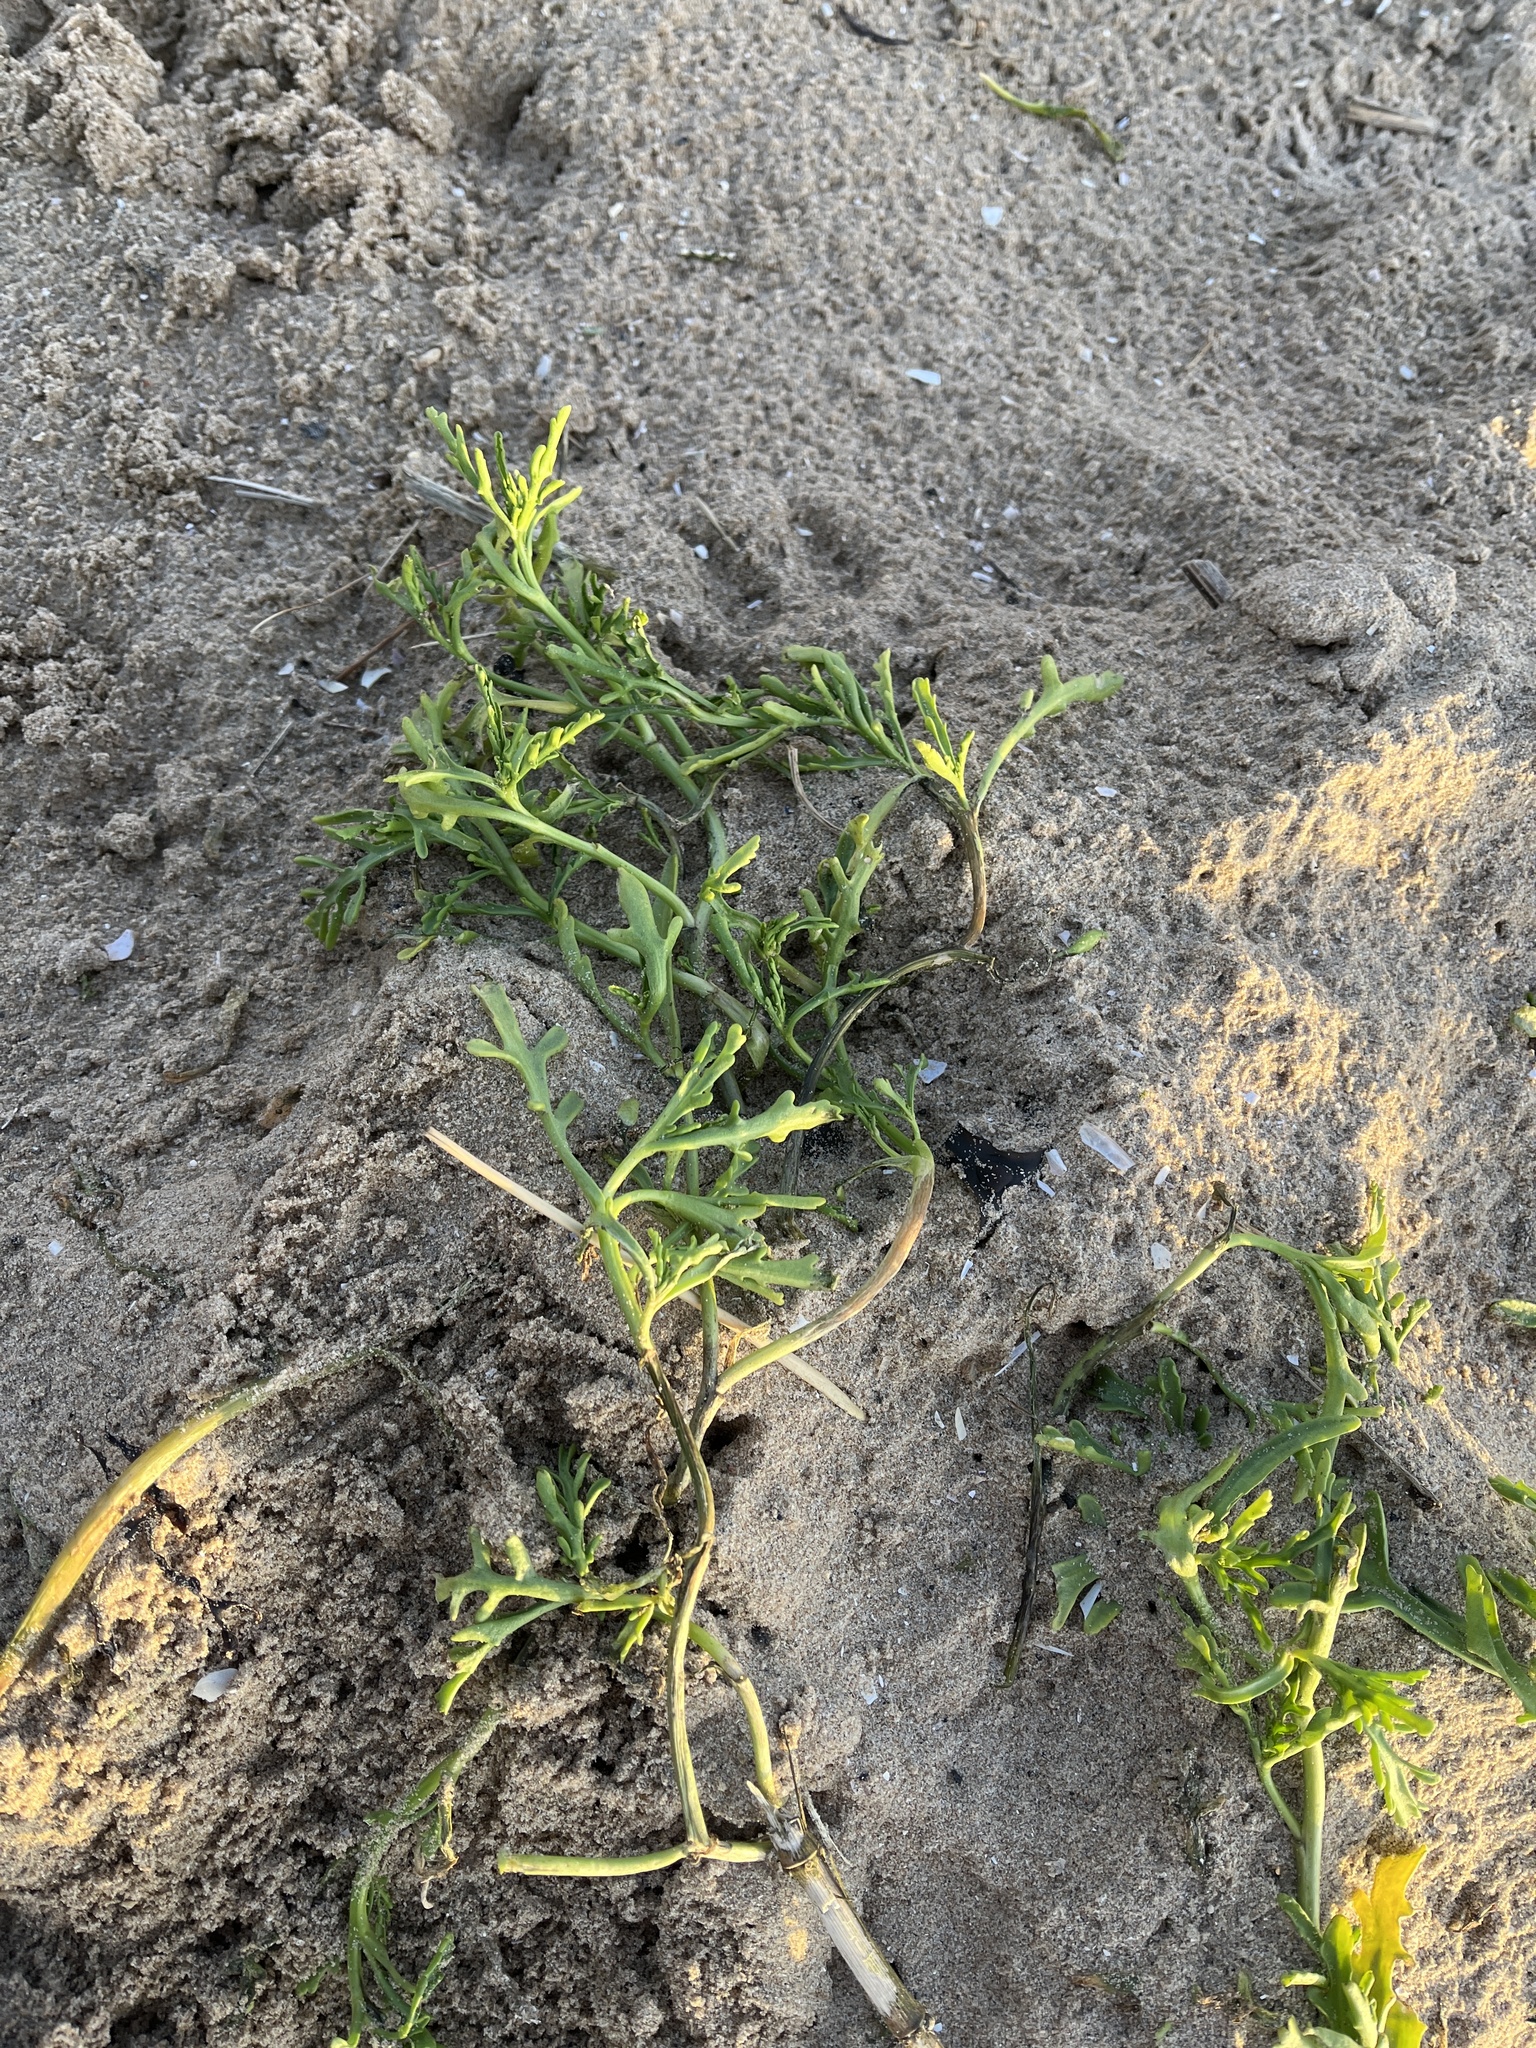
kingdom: Plantae
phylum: Tracheophyta
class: Magnoliopsida
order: Brassicales
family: Brassicaceae
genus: Cakile
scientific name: Cakile maritima
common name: Sea rocket
